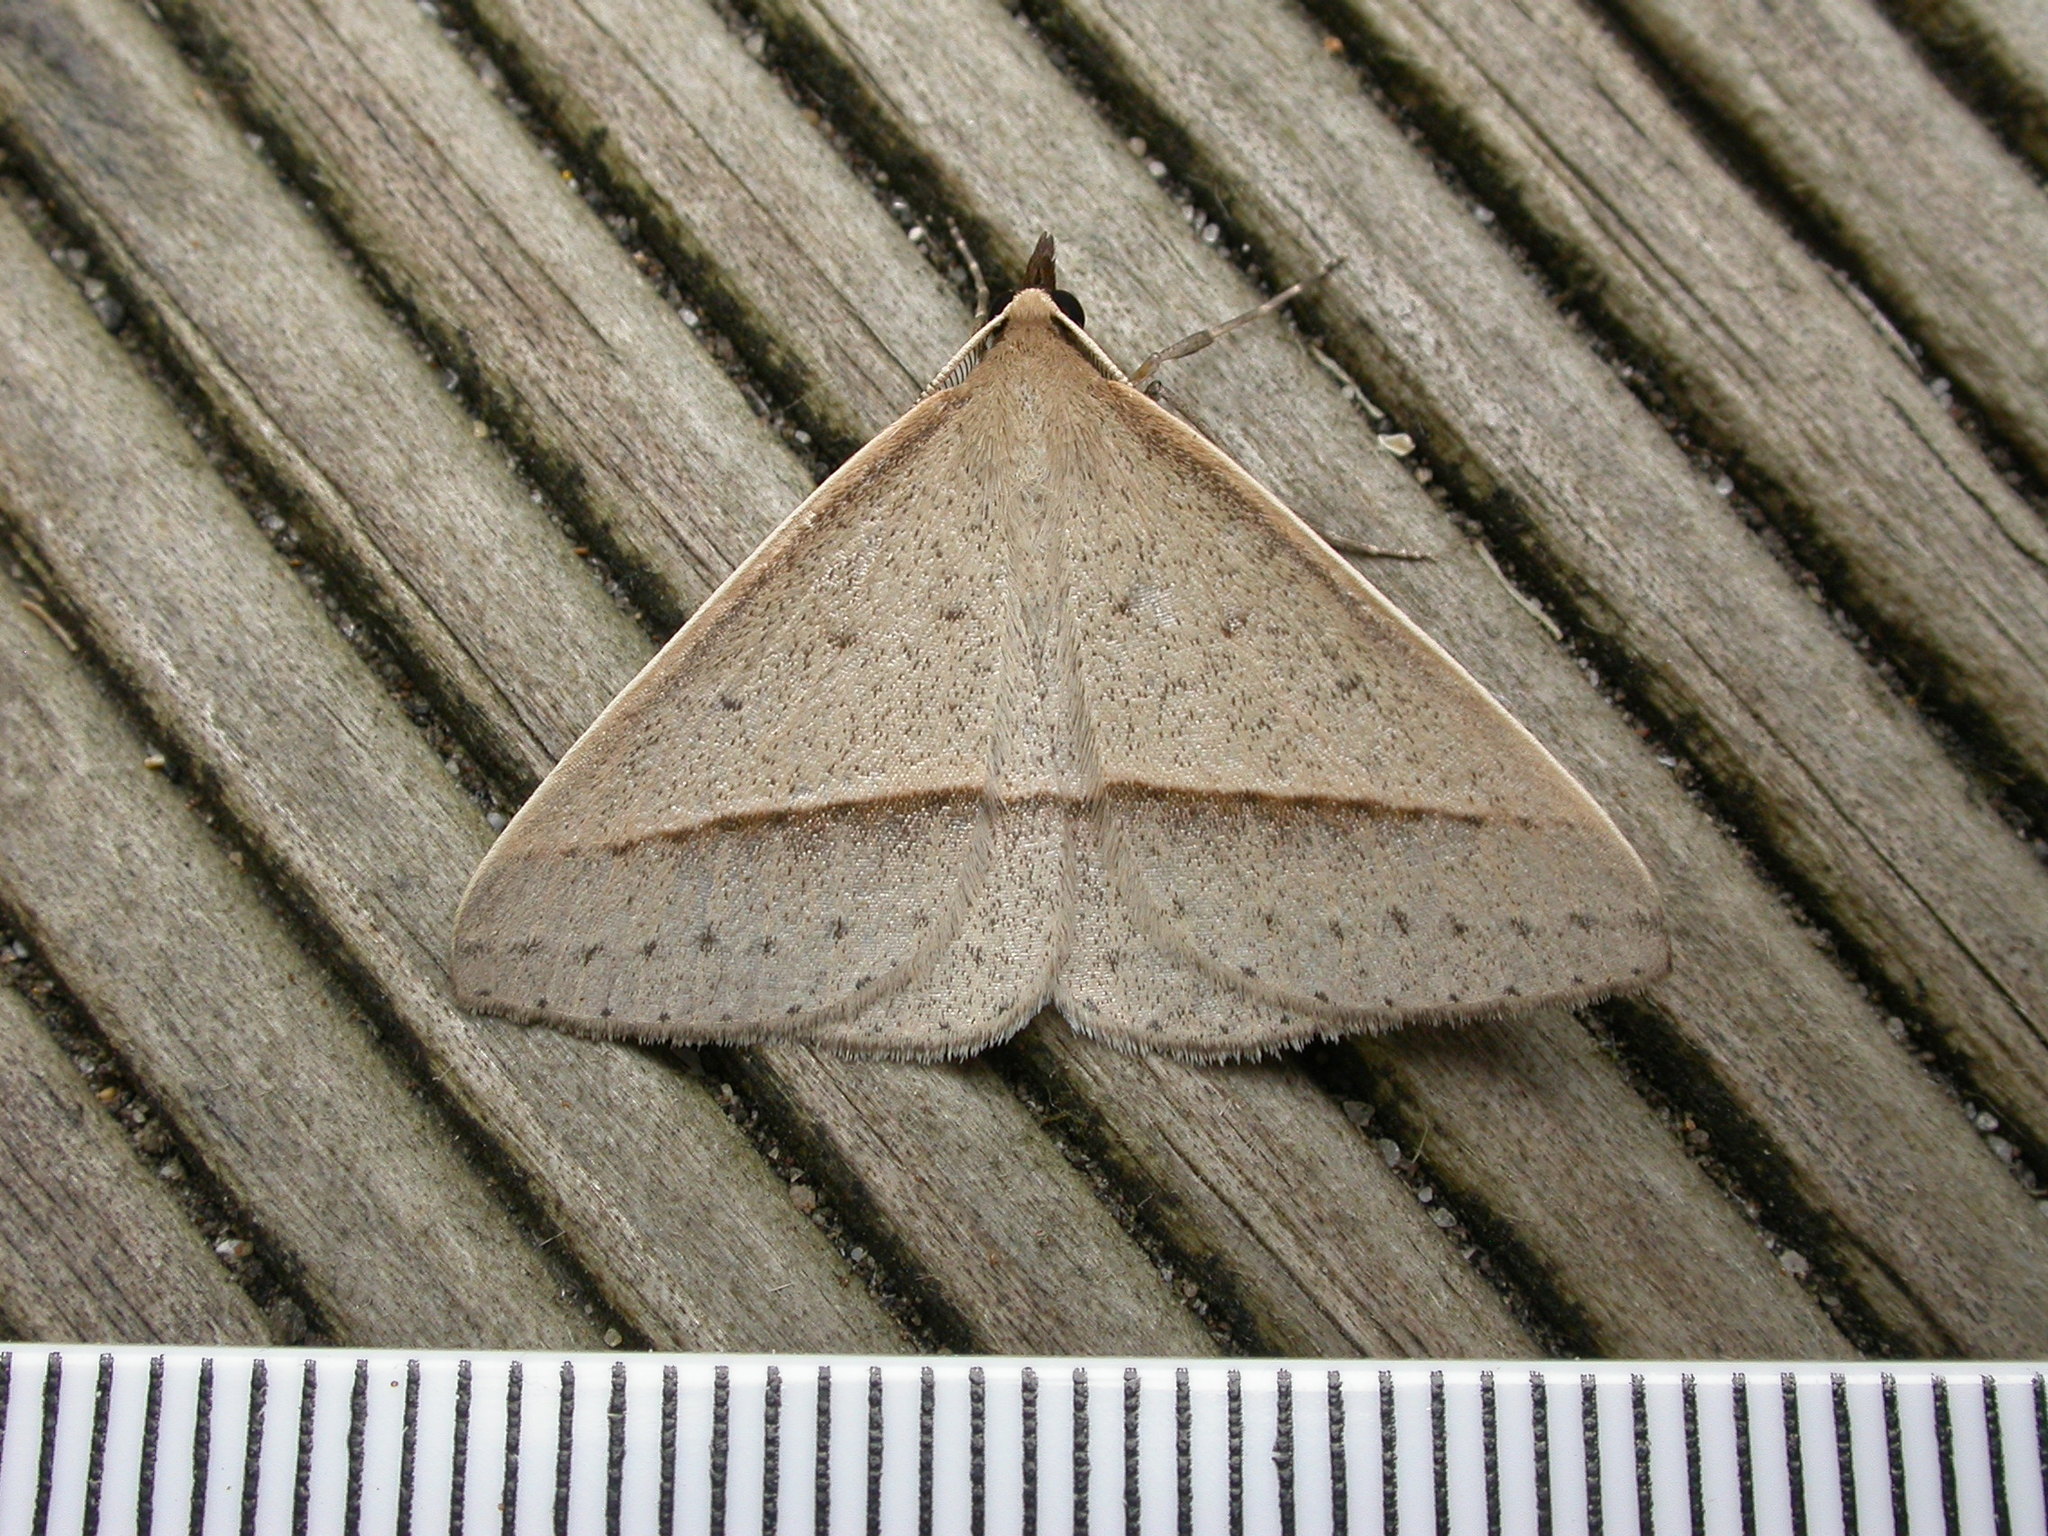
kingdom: Animalia
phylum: Arthropoda
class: Insecta
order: Lepidoptera
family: Geometridae
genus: Epidesmia
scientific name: Epidesmia tryxaria
